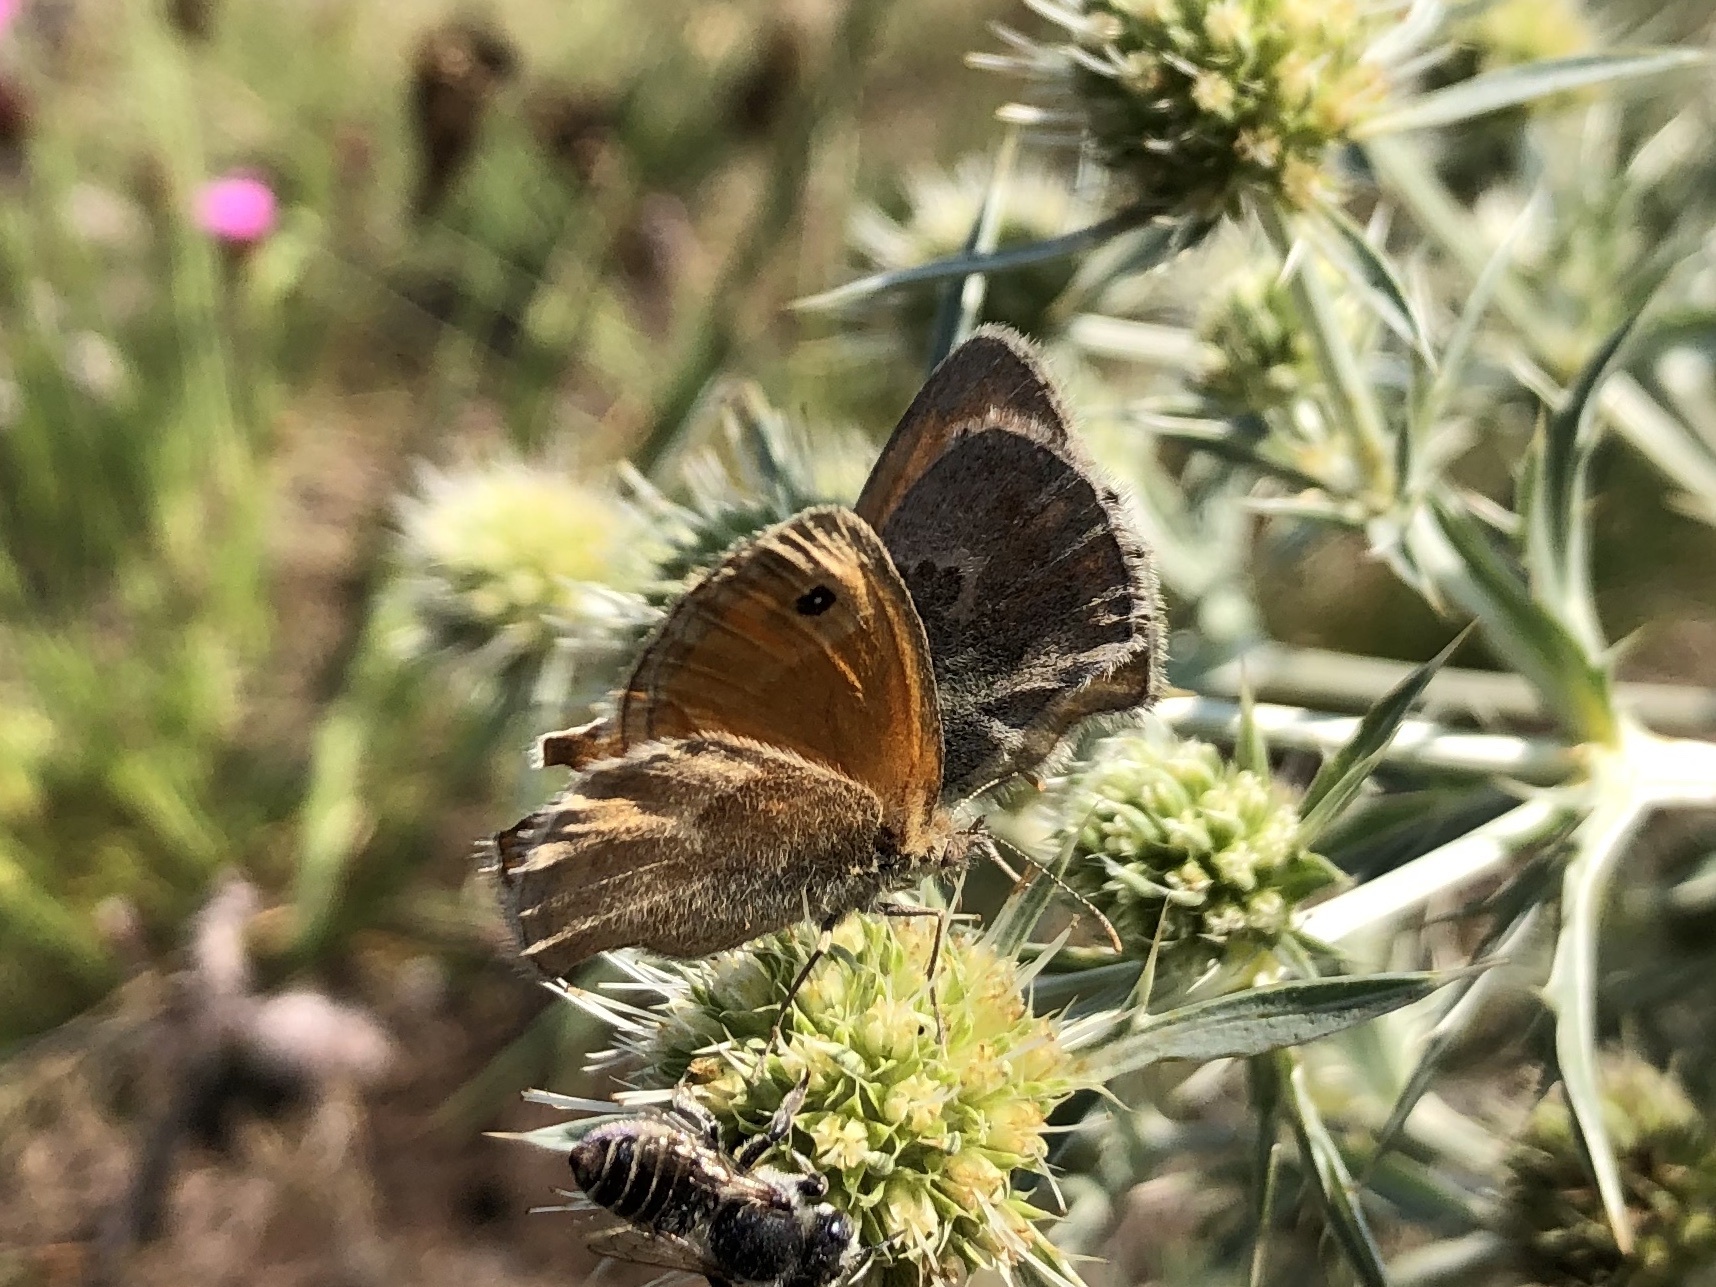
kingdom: Animalia
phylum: Arthropoda
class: Insecta
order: Lepidoptera
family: Nymphalidae
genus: Coenonympha
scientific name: Coenonympha pamphilus
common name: Small heath
